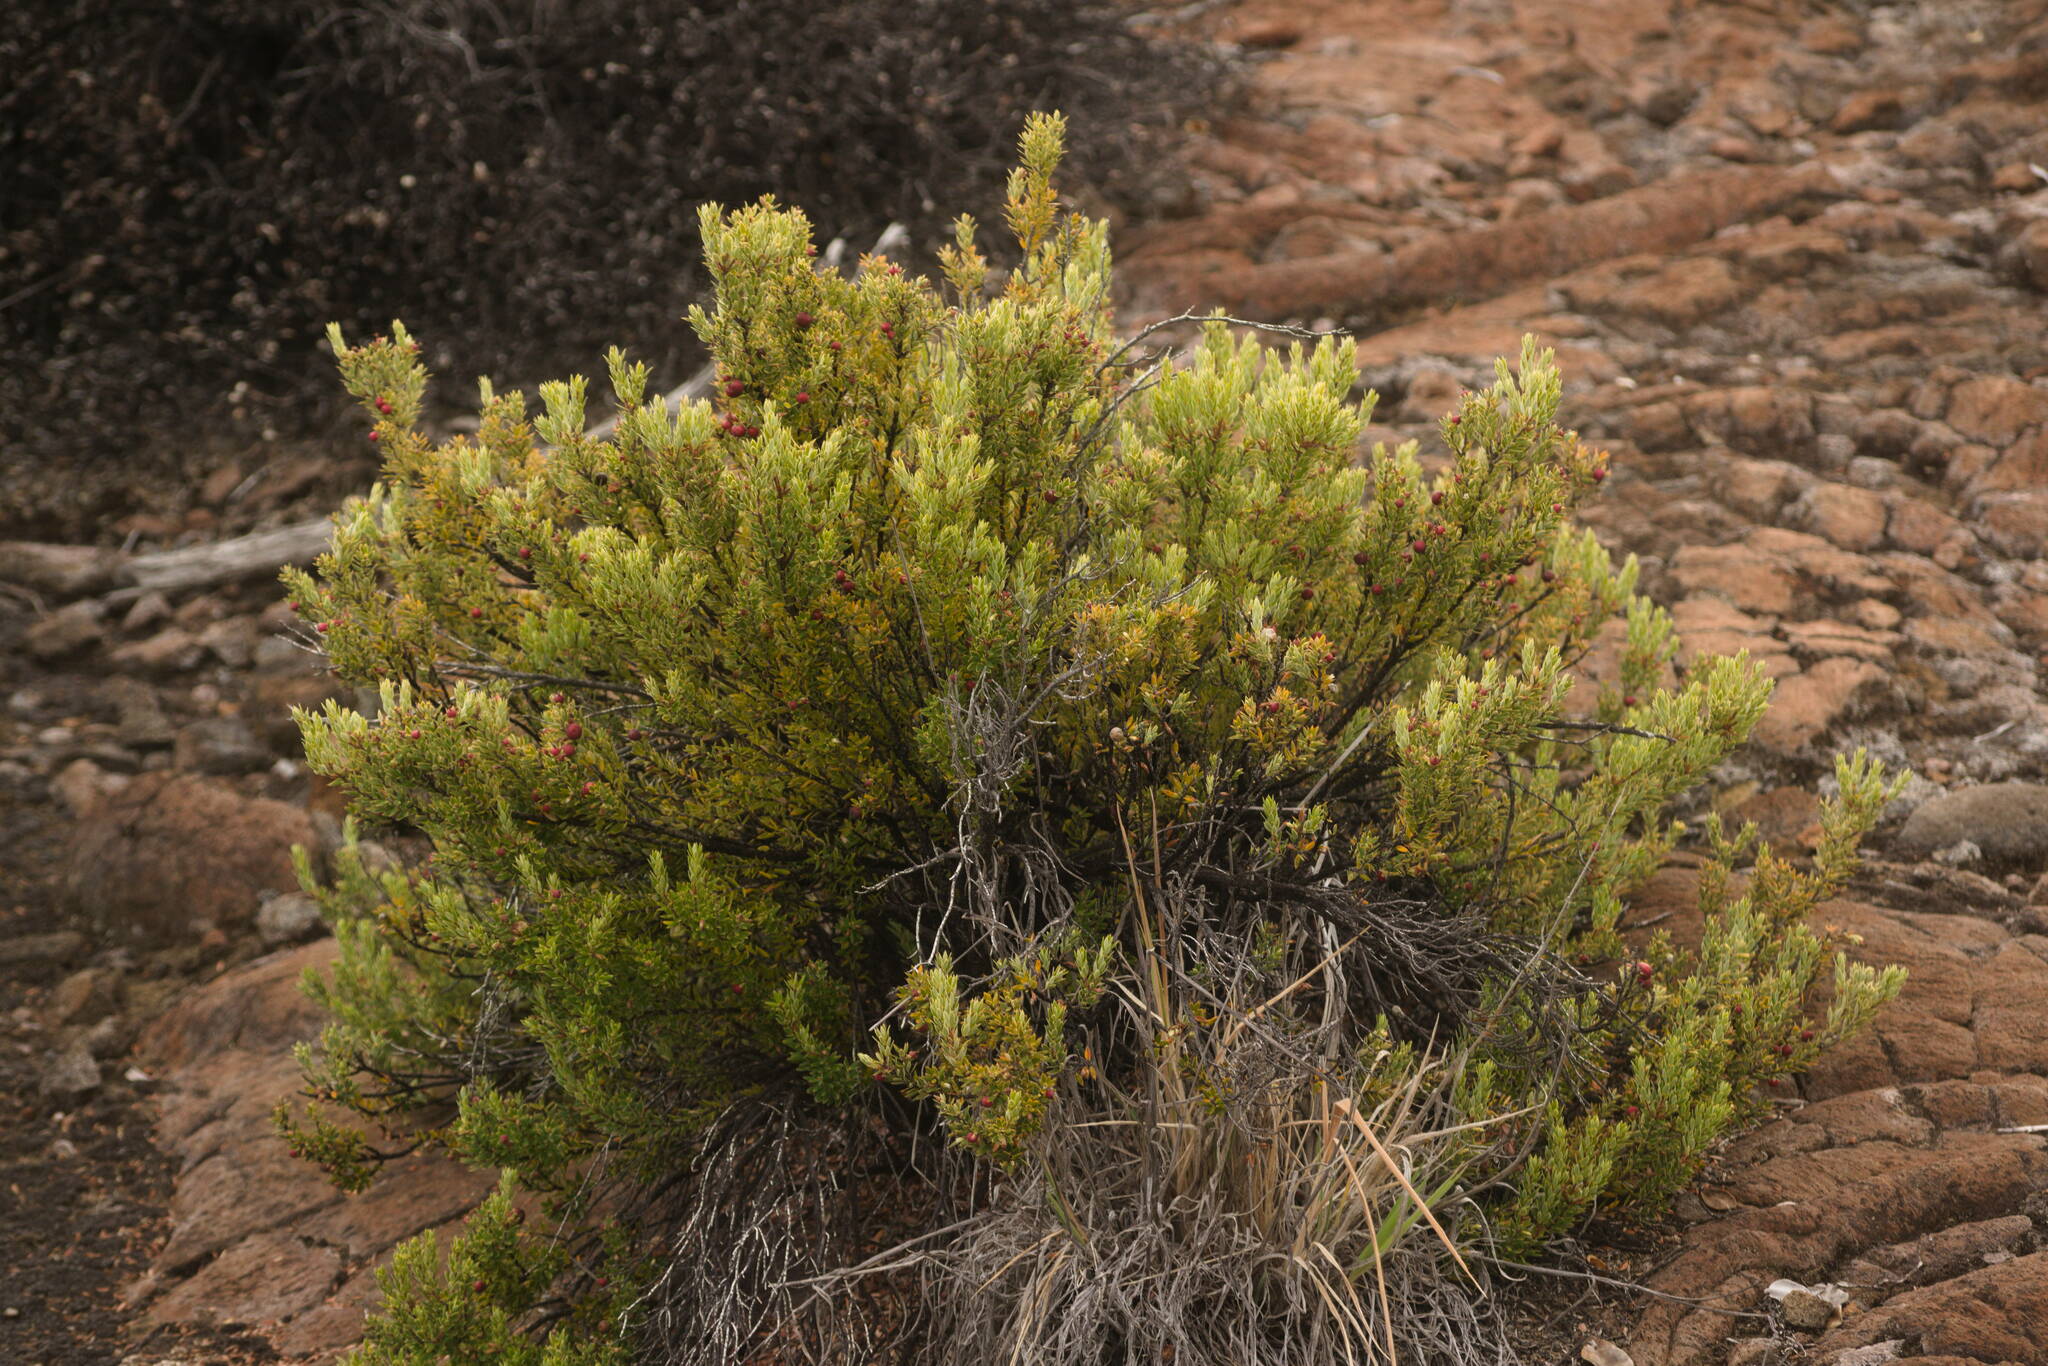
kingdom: Plantae
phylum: Tracheophyta
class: Magnoliopsida
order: Ericales
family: Ericaceae
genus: Leptecophylla
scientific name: Leptecophylla tameiameiae
